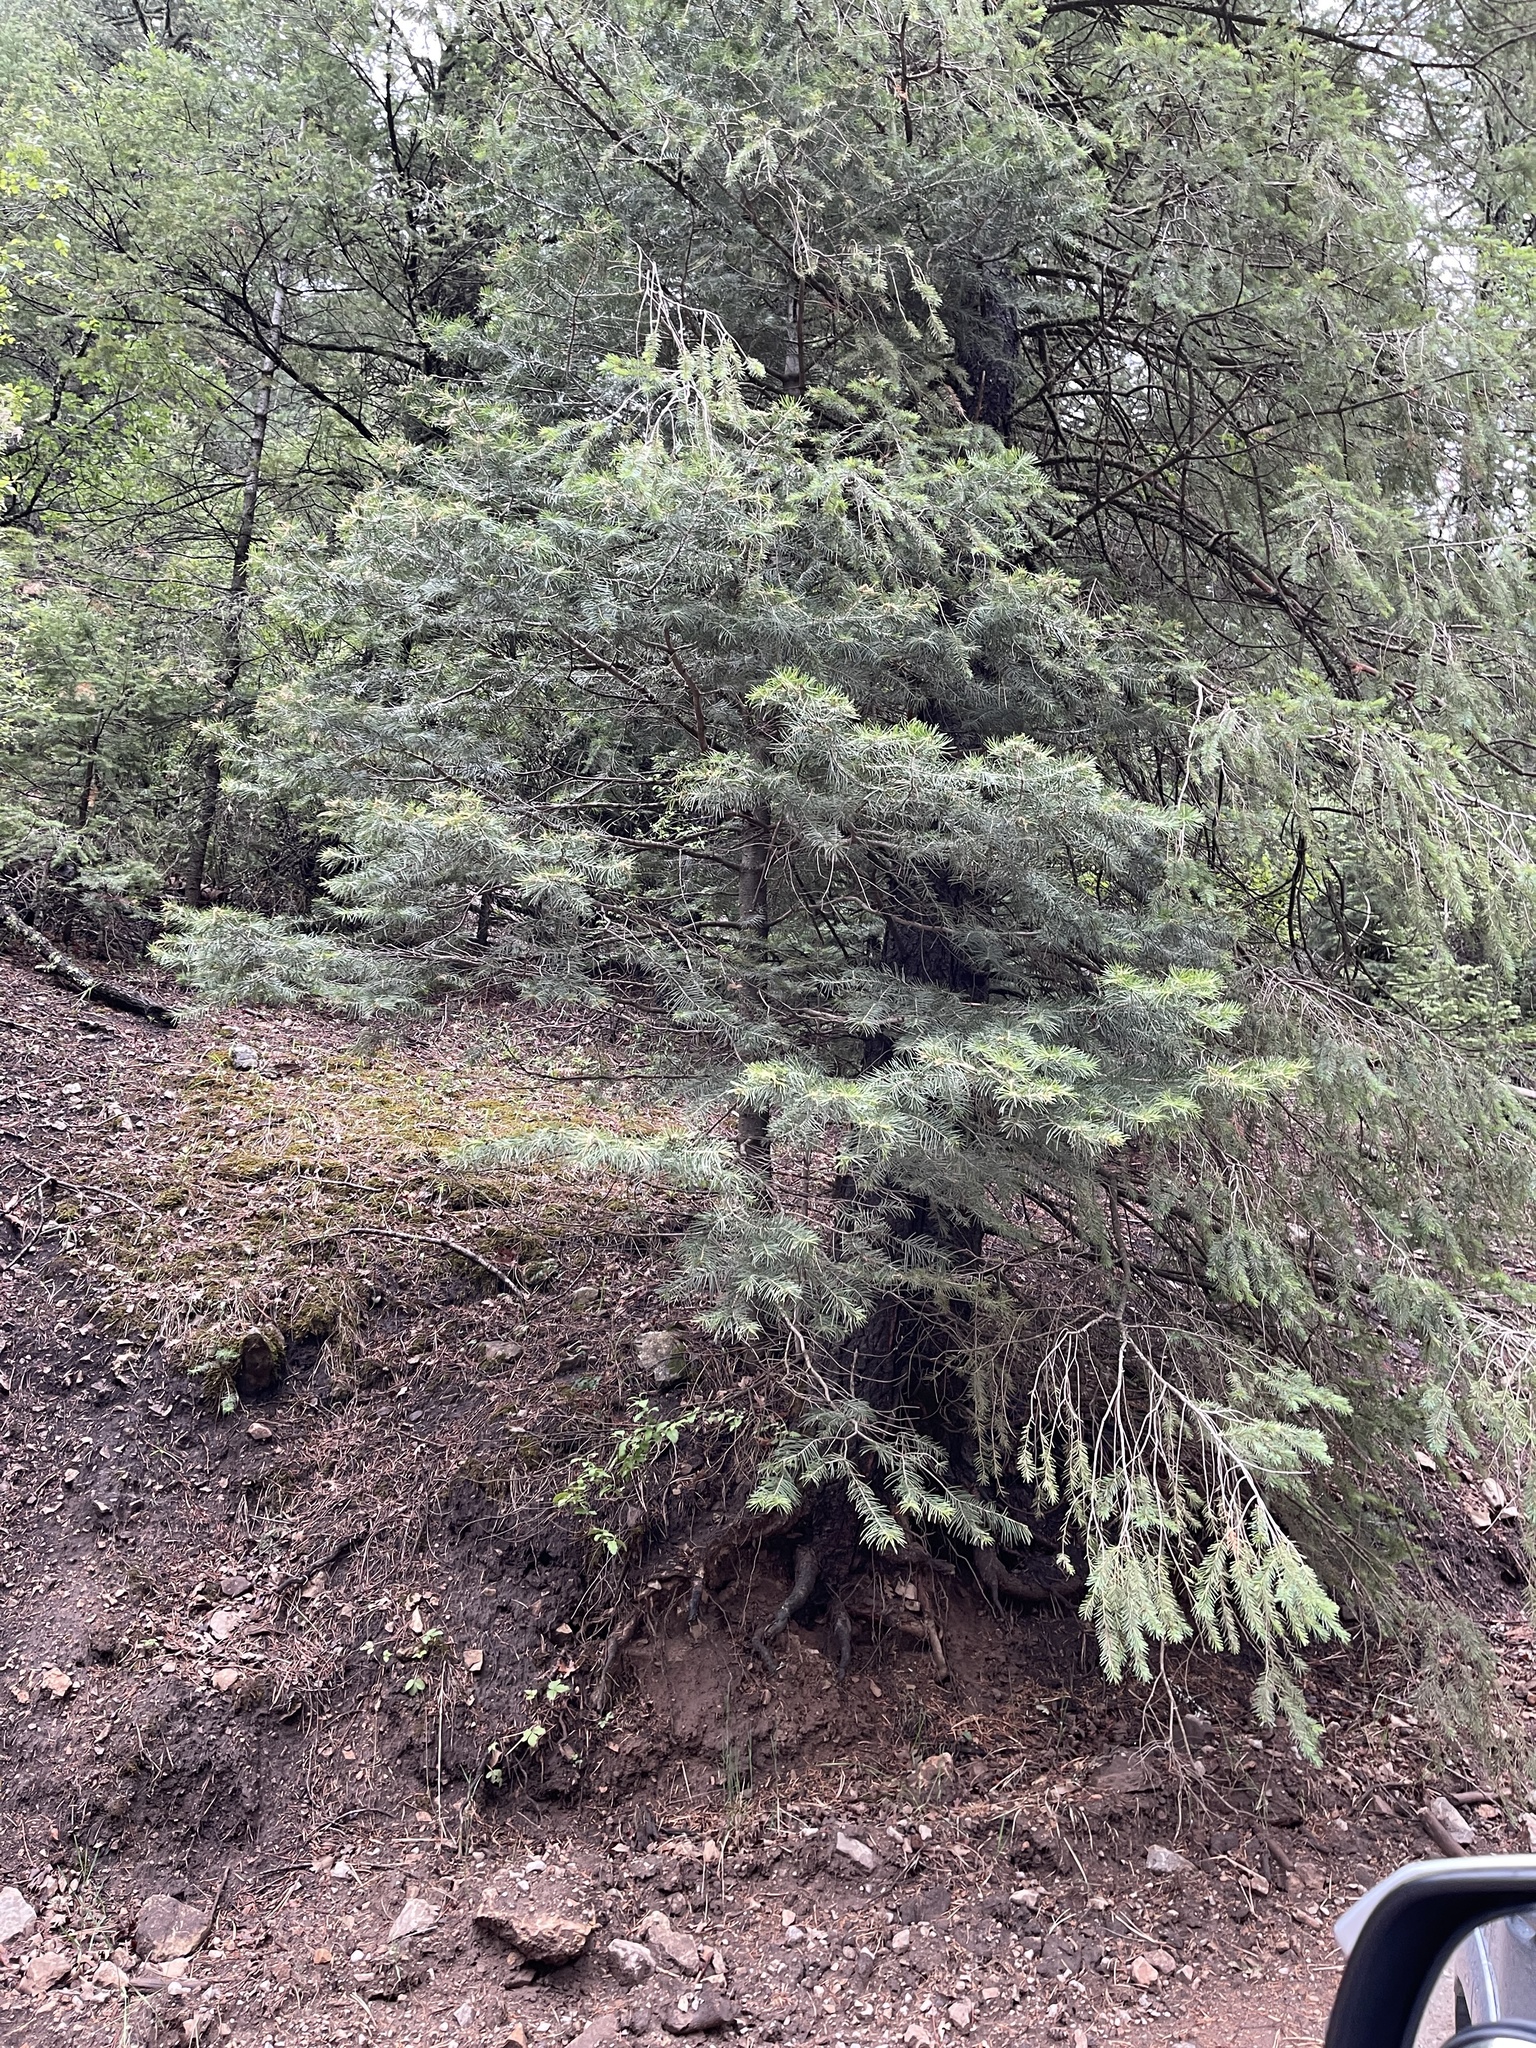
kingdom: Plantae
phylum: Tracheophyta
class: Pinopsida
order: Pinales
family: Pinaceae
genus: Abies
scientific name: Abies concolor
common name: Colorado fir
